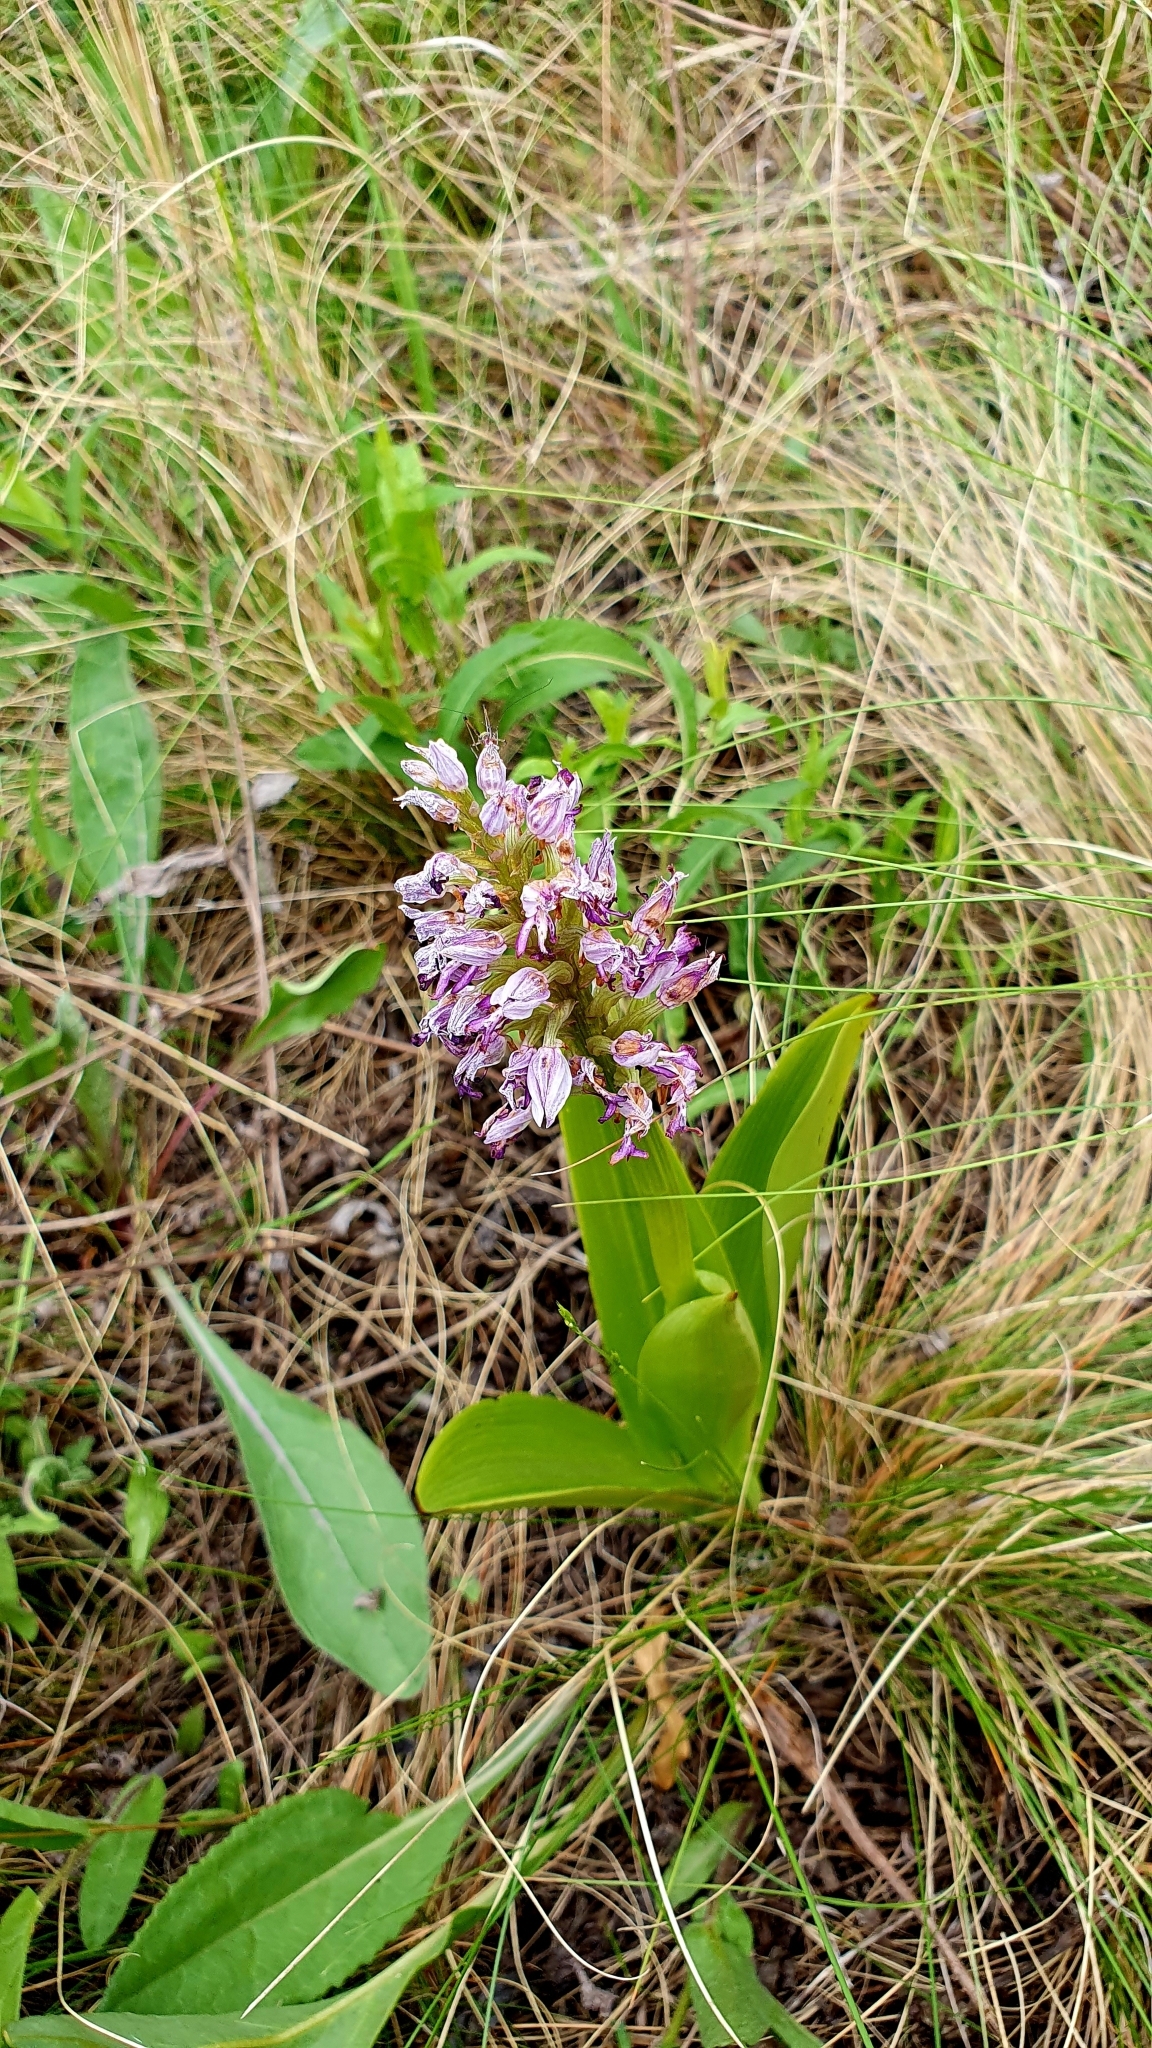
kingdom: Plantae
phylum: Tracheophyta
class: Liliopsida
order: Asparagales
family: Orchidaceae
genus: Orchis
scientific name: Orchis militaris
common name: Military orchid
